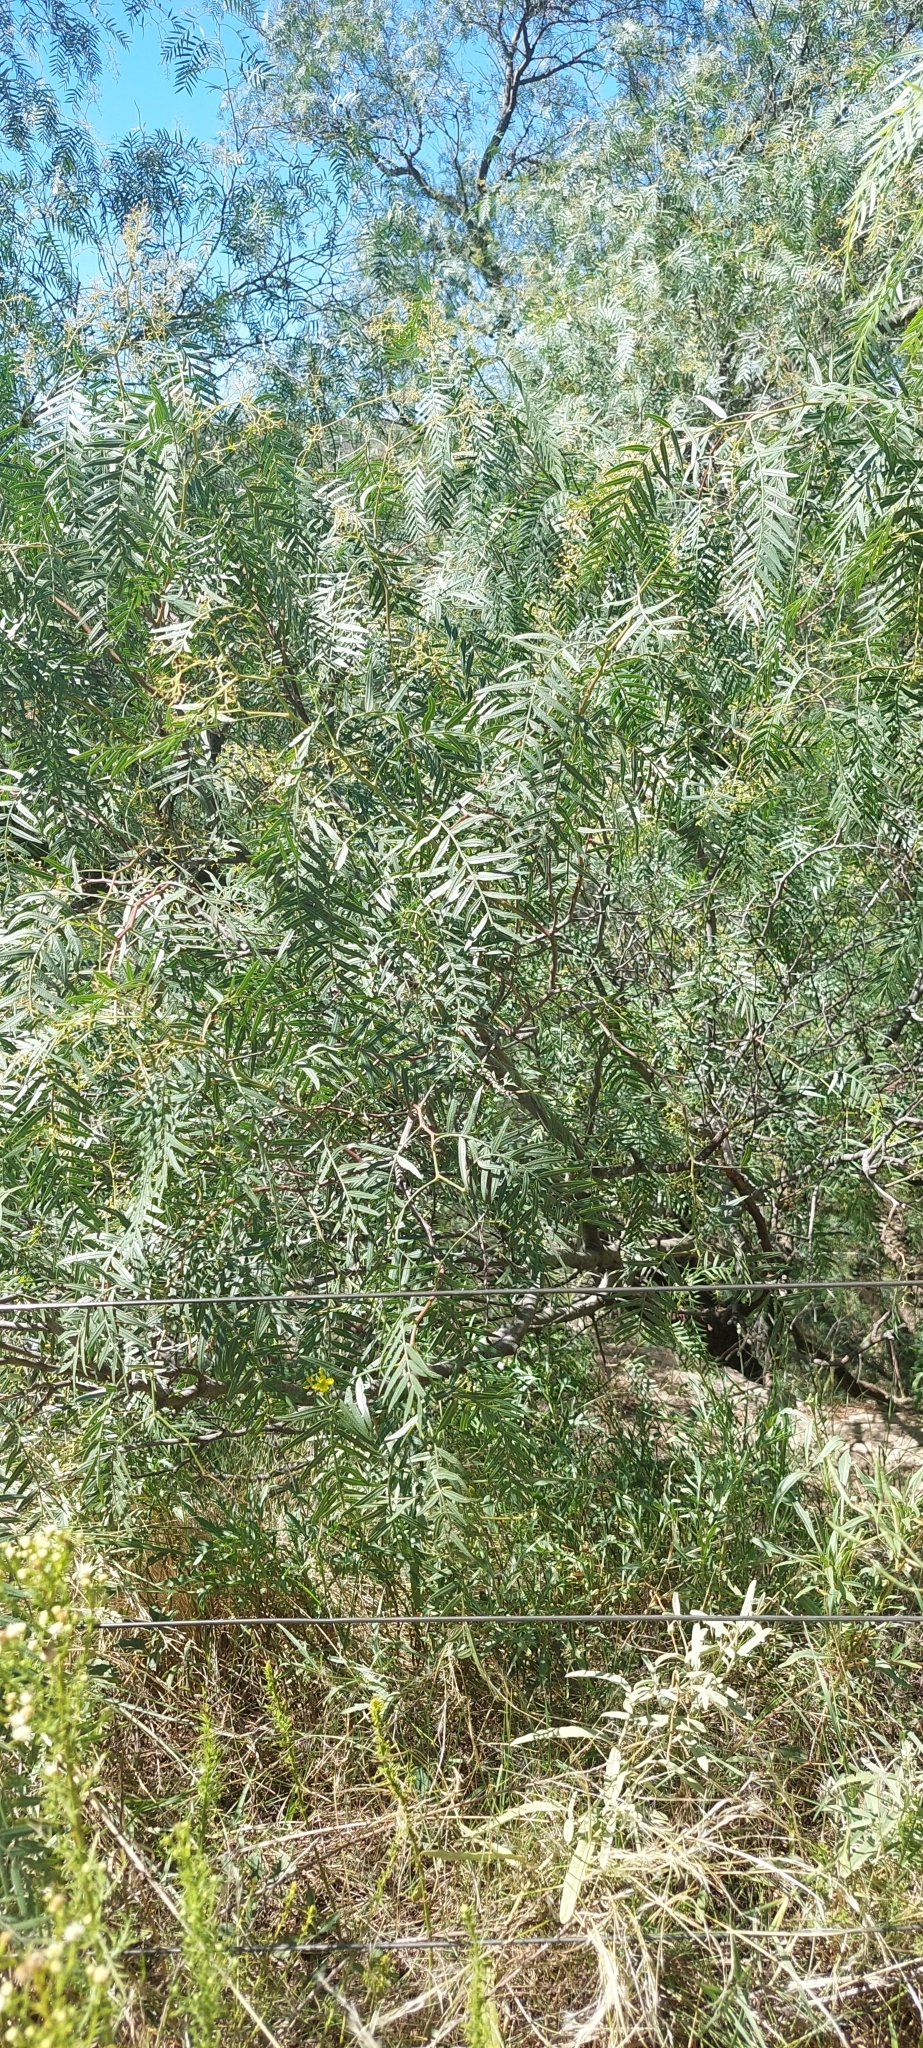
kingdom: Plantae
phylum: Tracheophyta
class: Magnoliopsida
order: Sapindales
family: Anacardiaceae
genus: Schinus
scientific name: Schinus areira
